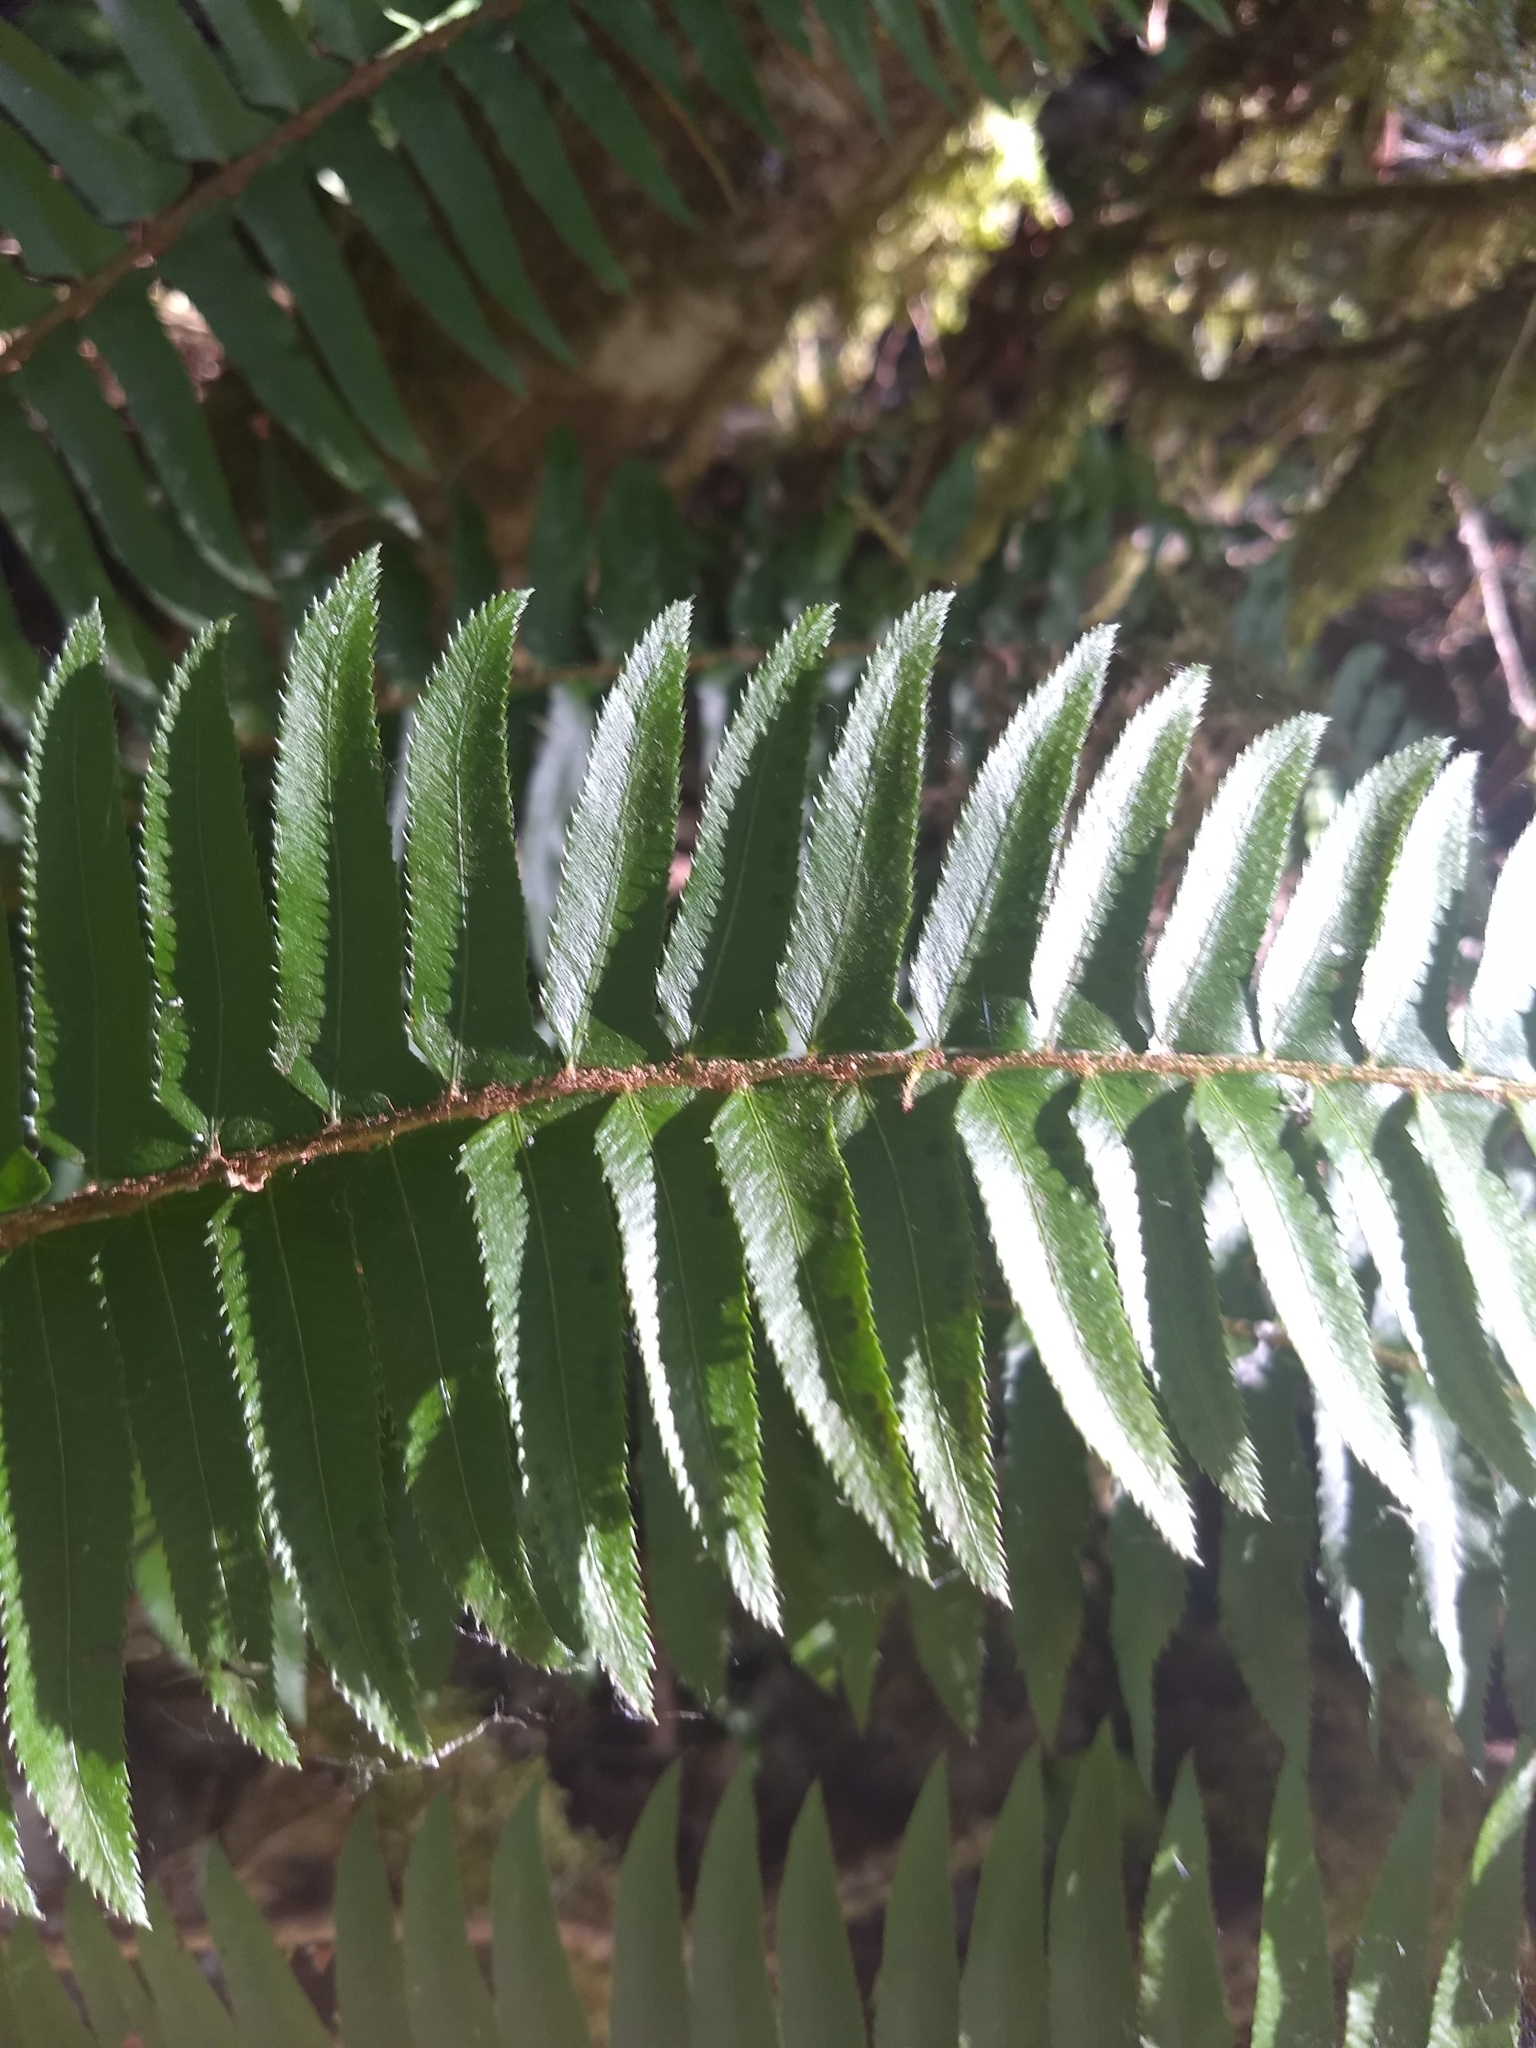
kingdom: Plantae
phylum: Tracheophyta
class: Polypodiopsida
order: Polypodiales
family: Dryopteridaceae
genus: Polystichum
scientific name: Polystichum munitum
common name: Western sword-fern
